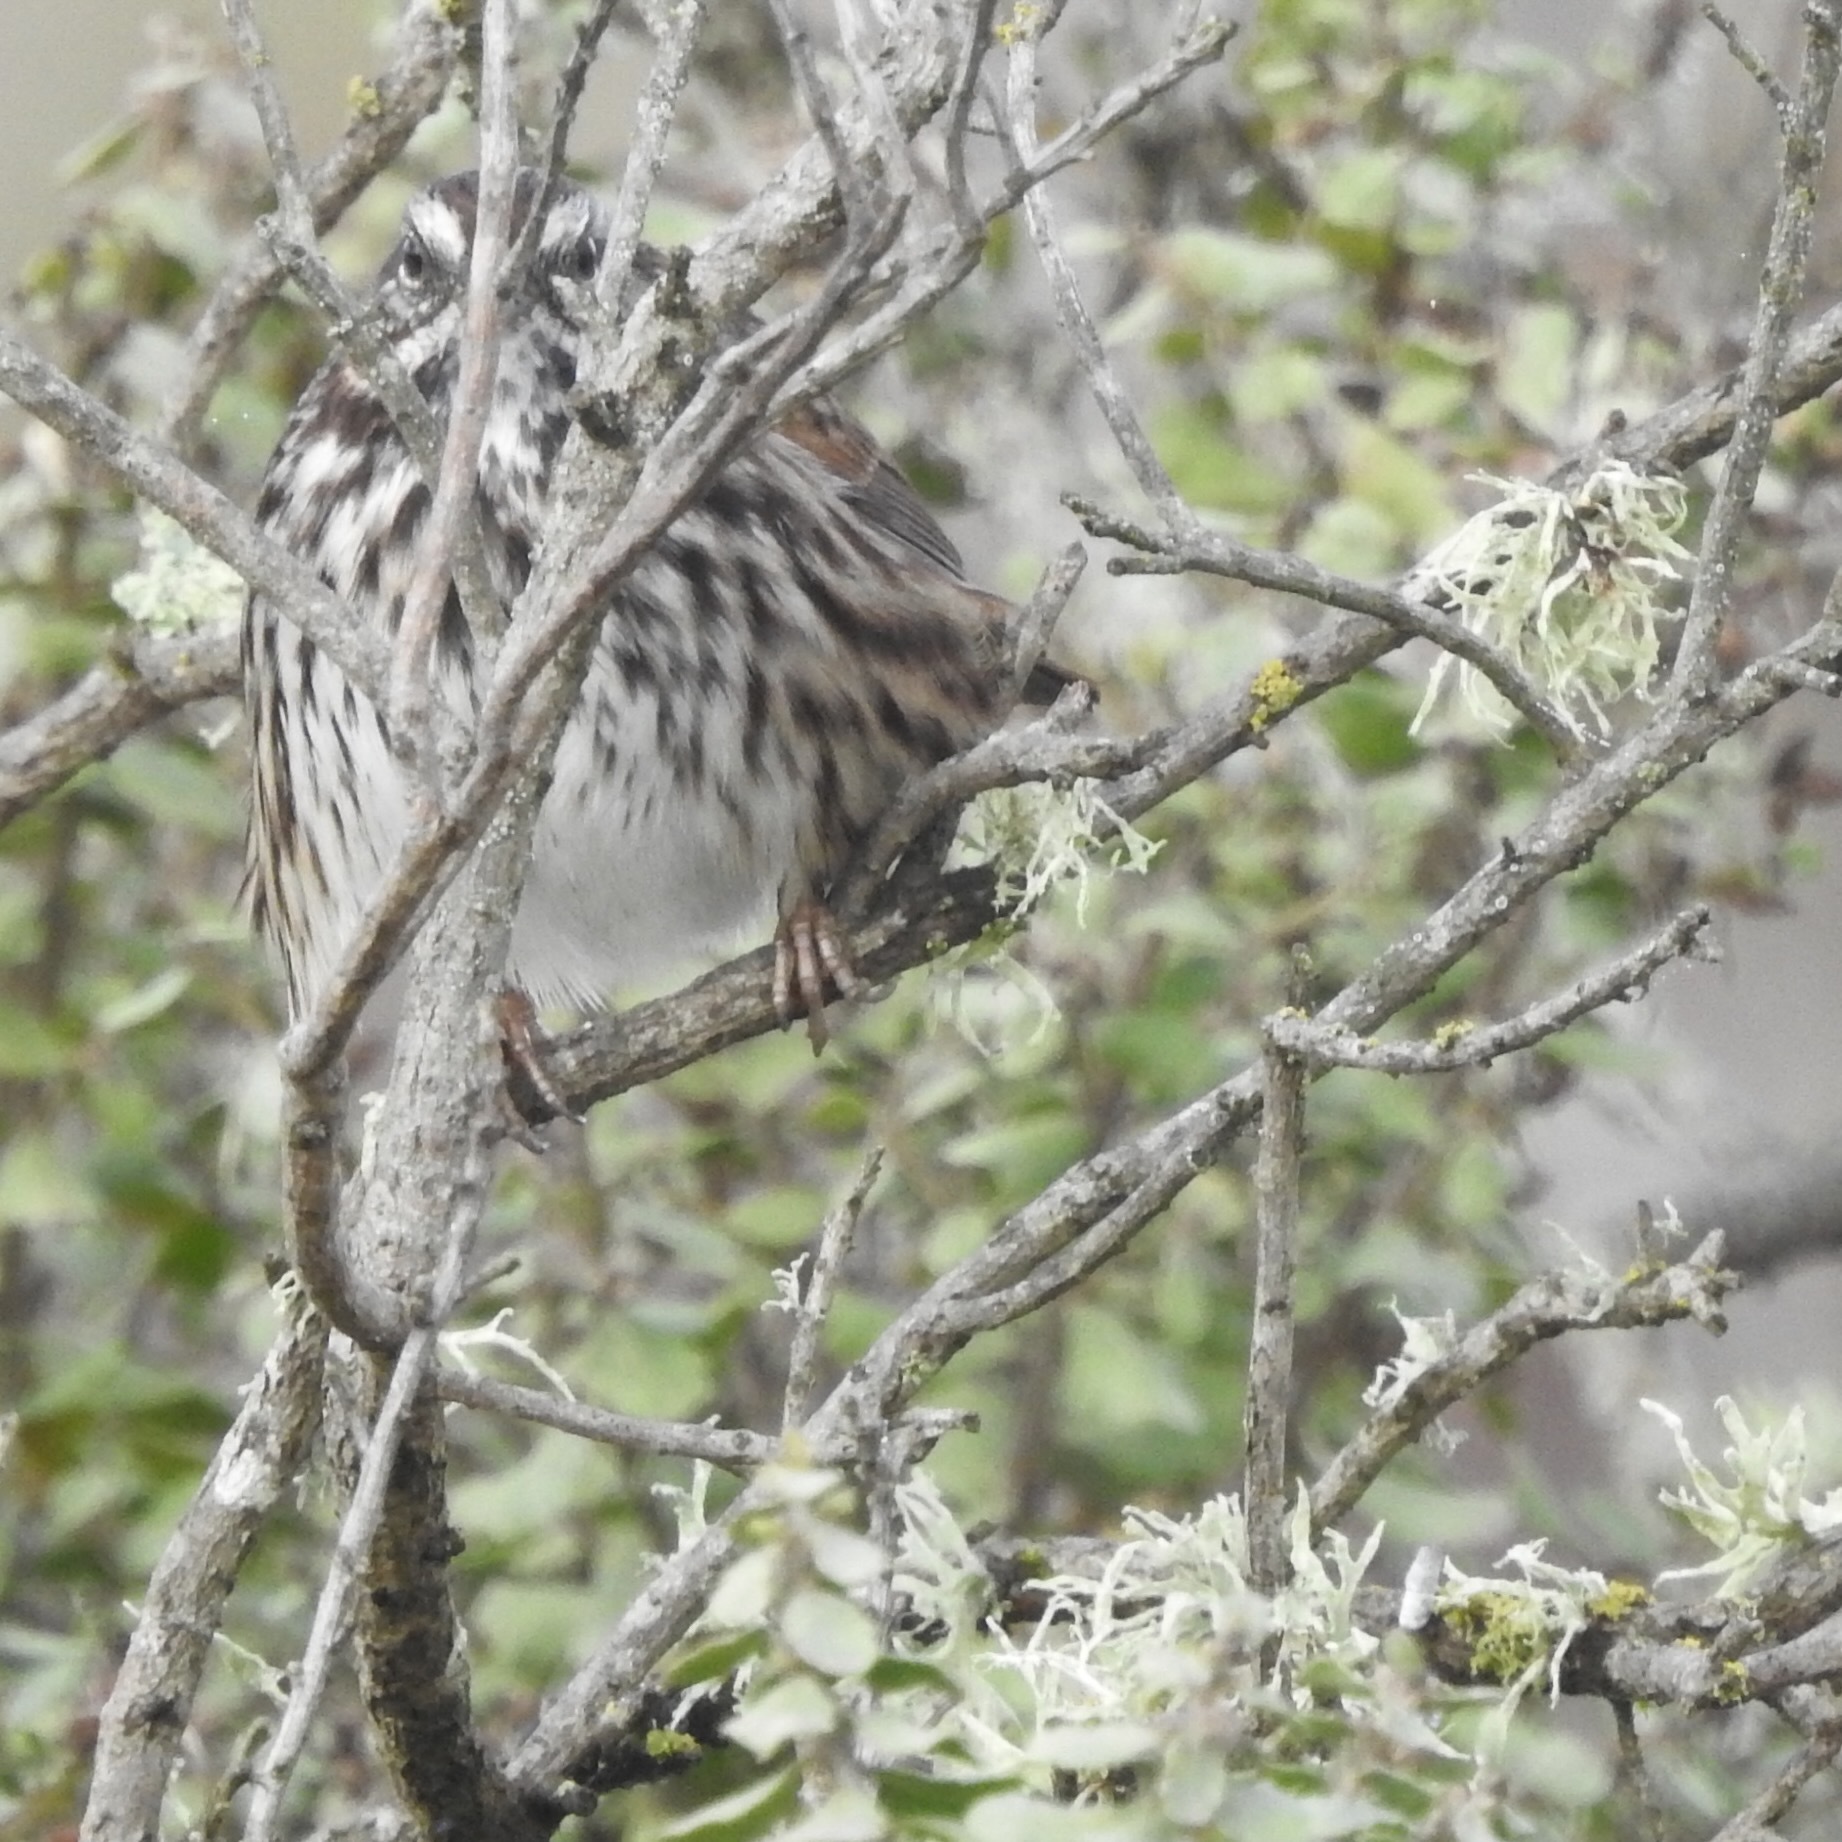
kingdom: Animalia
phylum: Chordata
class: Aves
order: Passeriformes
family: Passerellidae
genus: Melospiza
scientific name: Melospiza melodia
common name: Song sparrow
